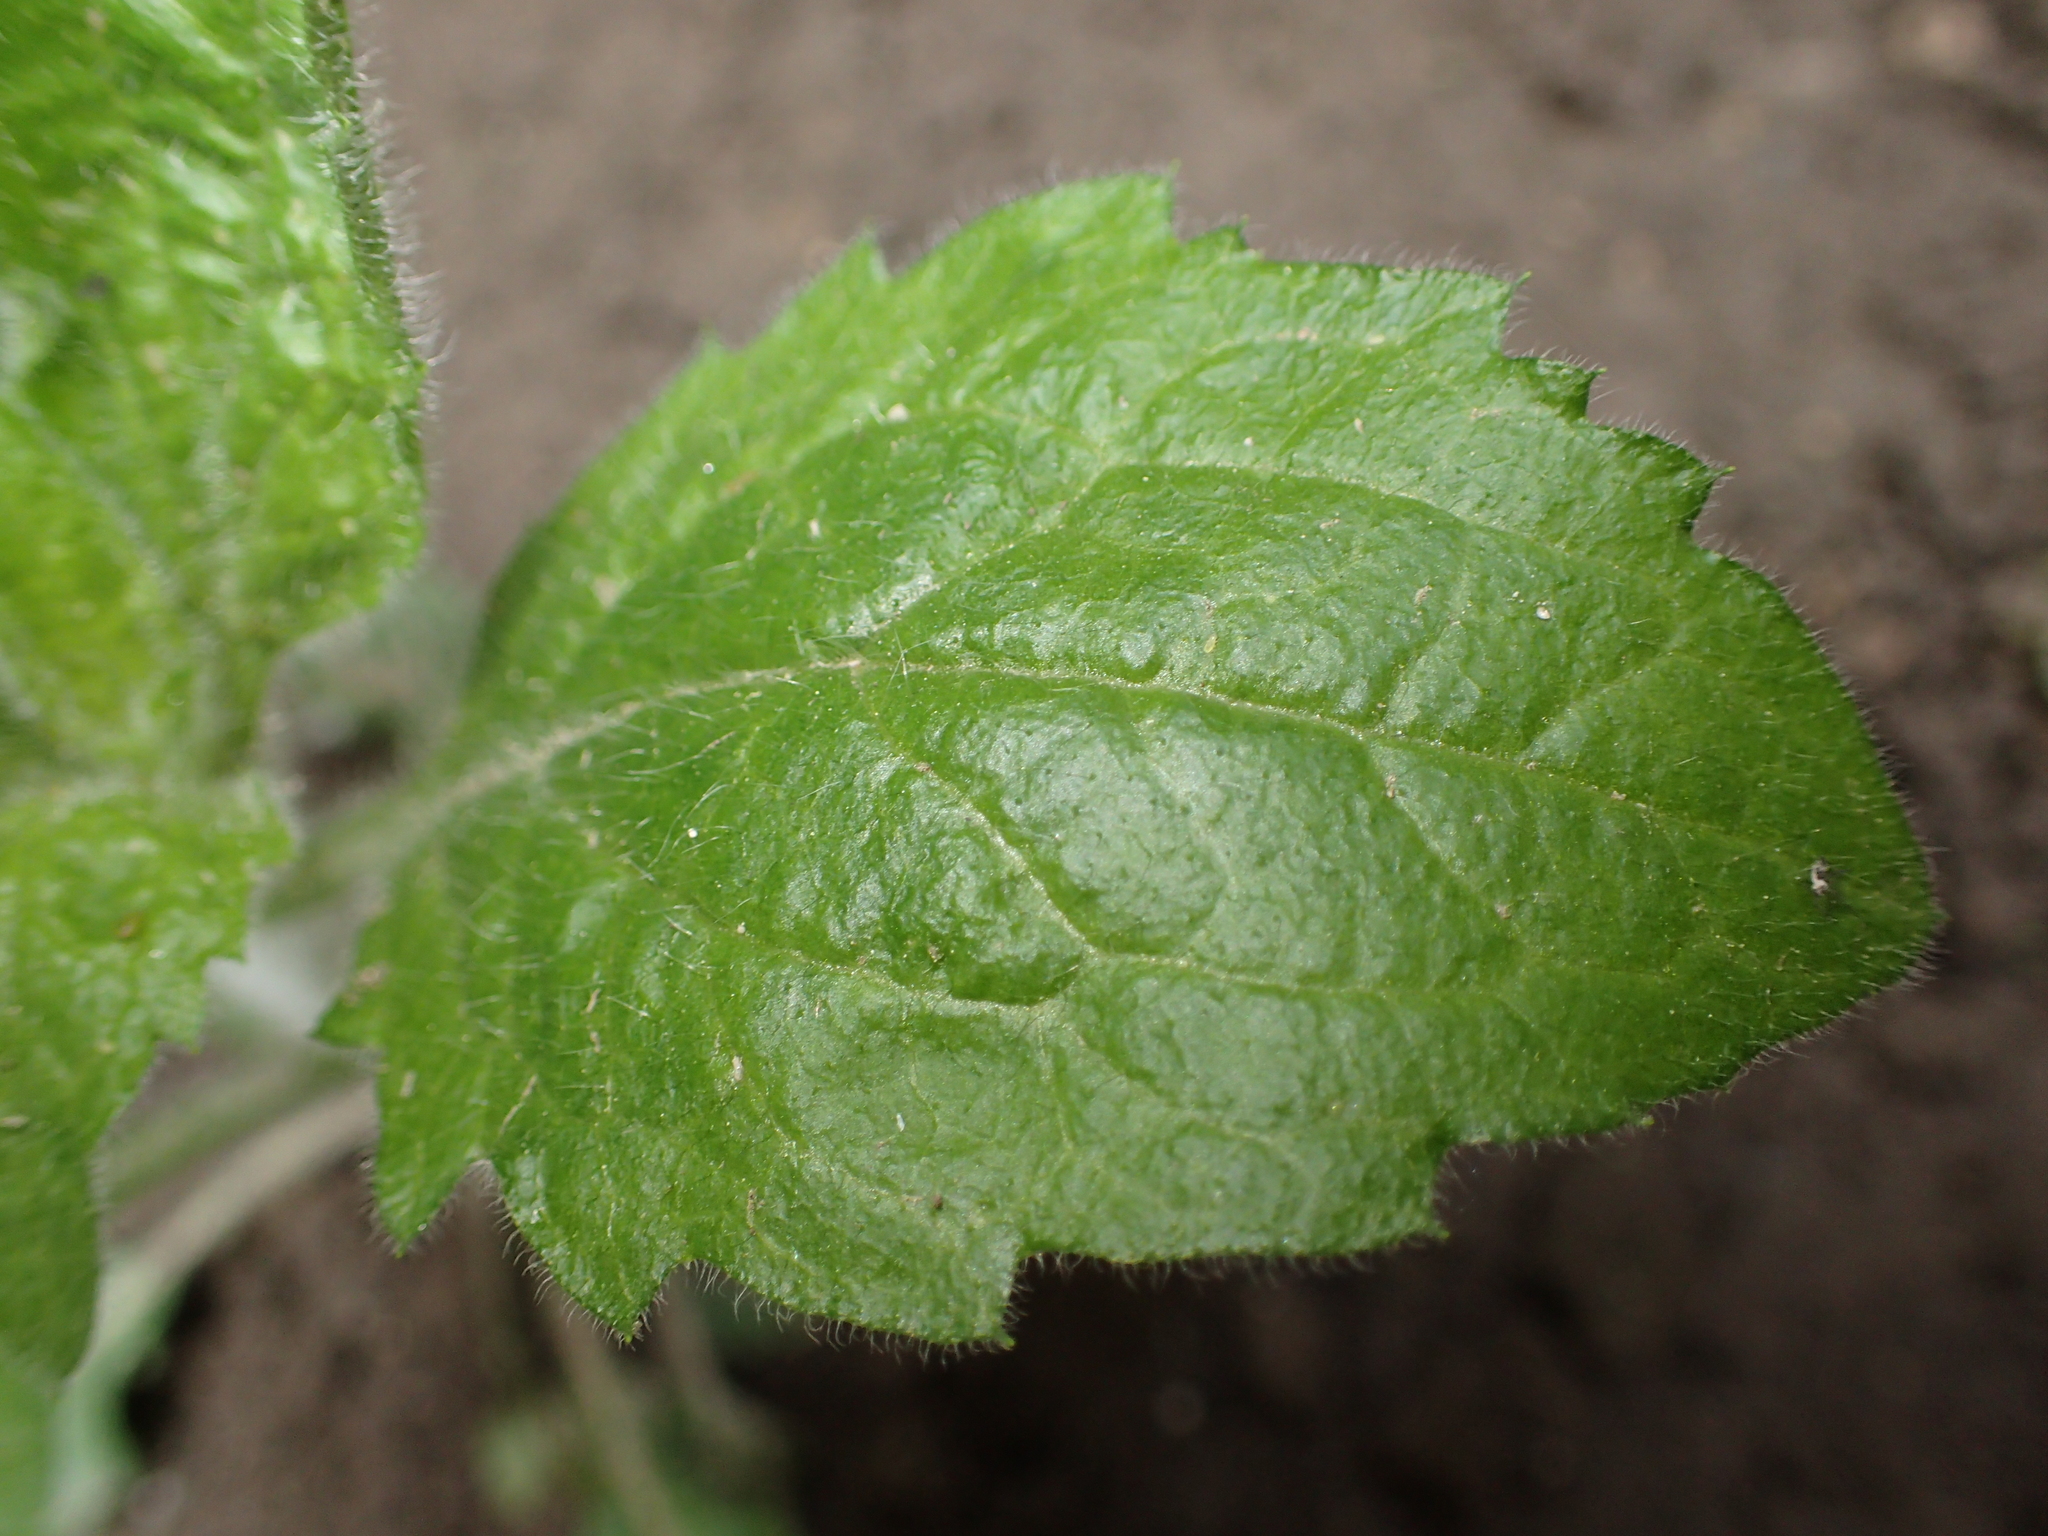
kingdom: Plantae
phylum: Tracheophyta
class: Magnoliopsida
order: Asterales
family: Asteraceae
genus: Erigeron
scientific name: Erigeron annuus
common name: Tall fleabane
